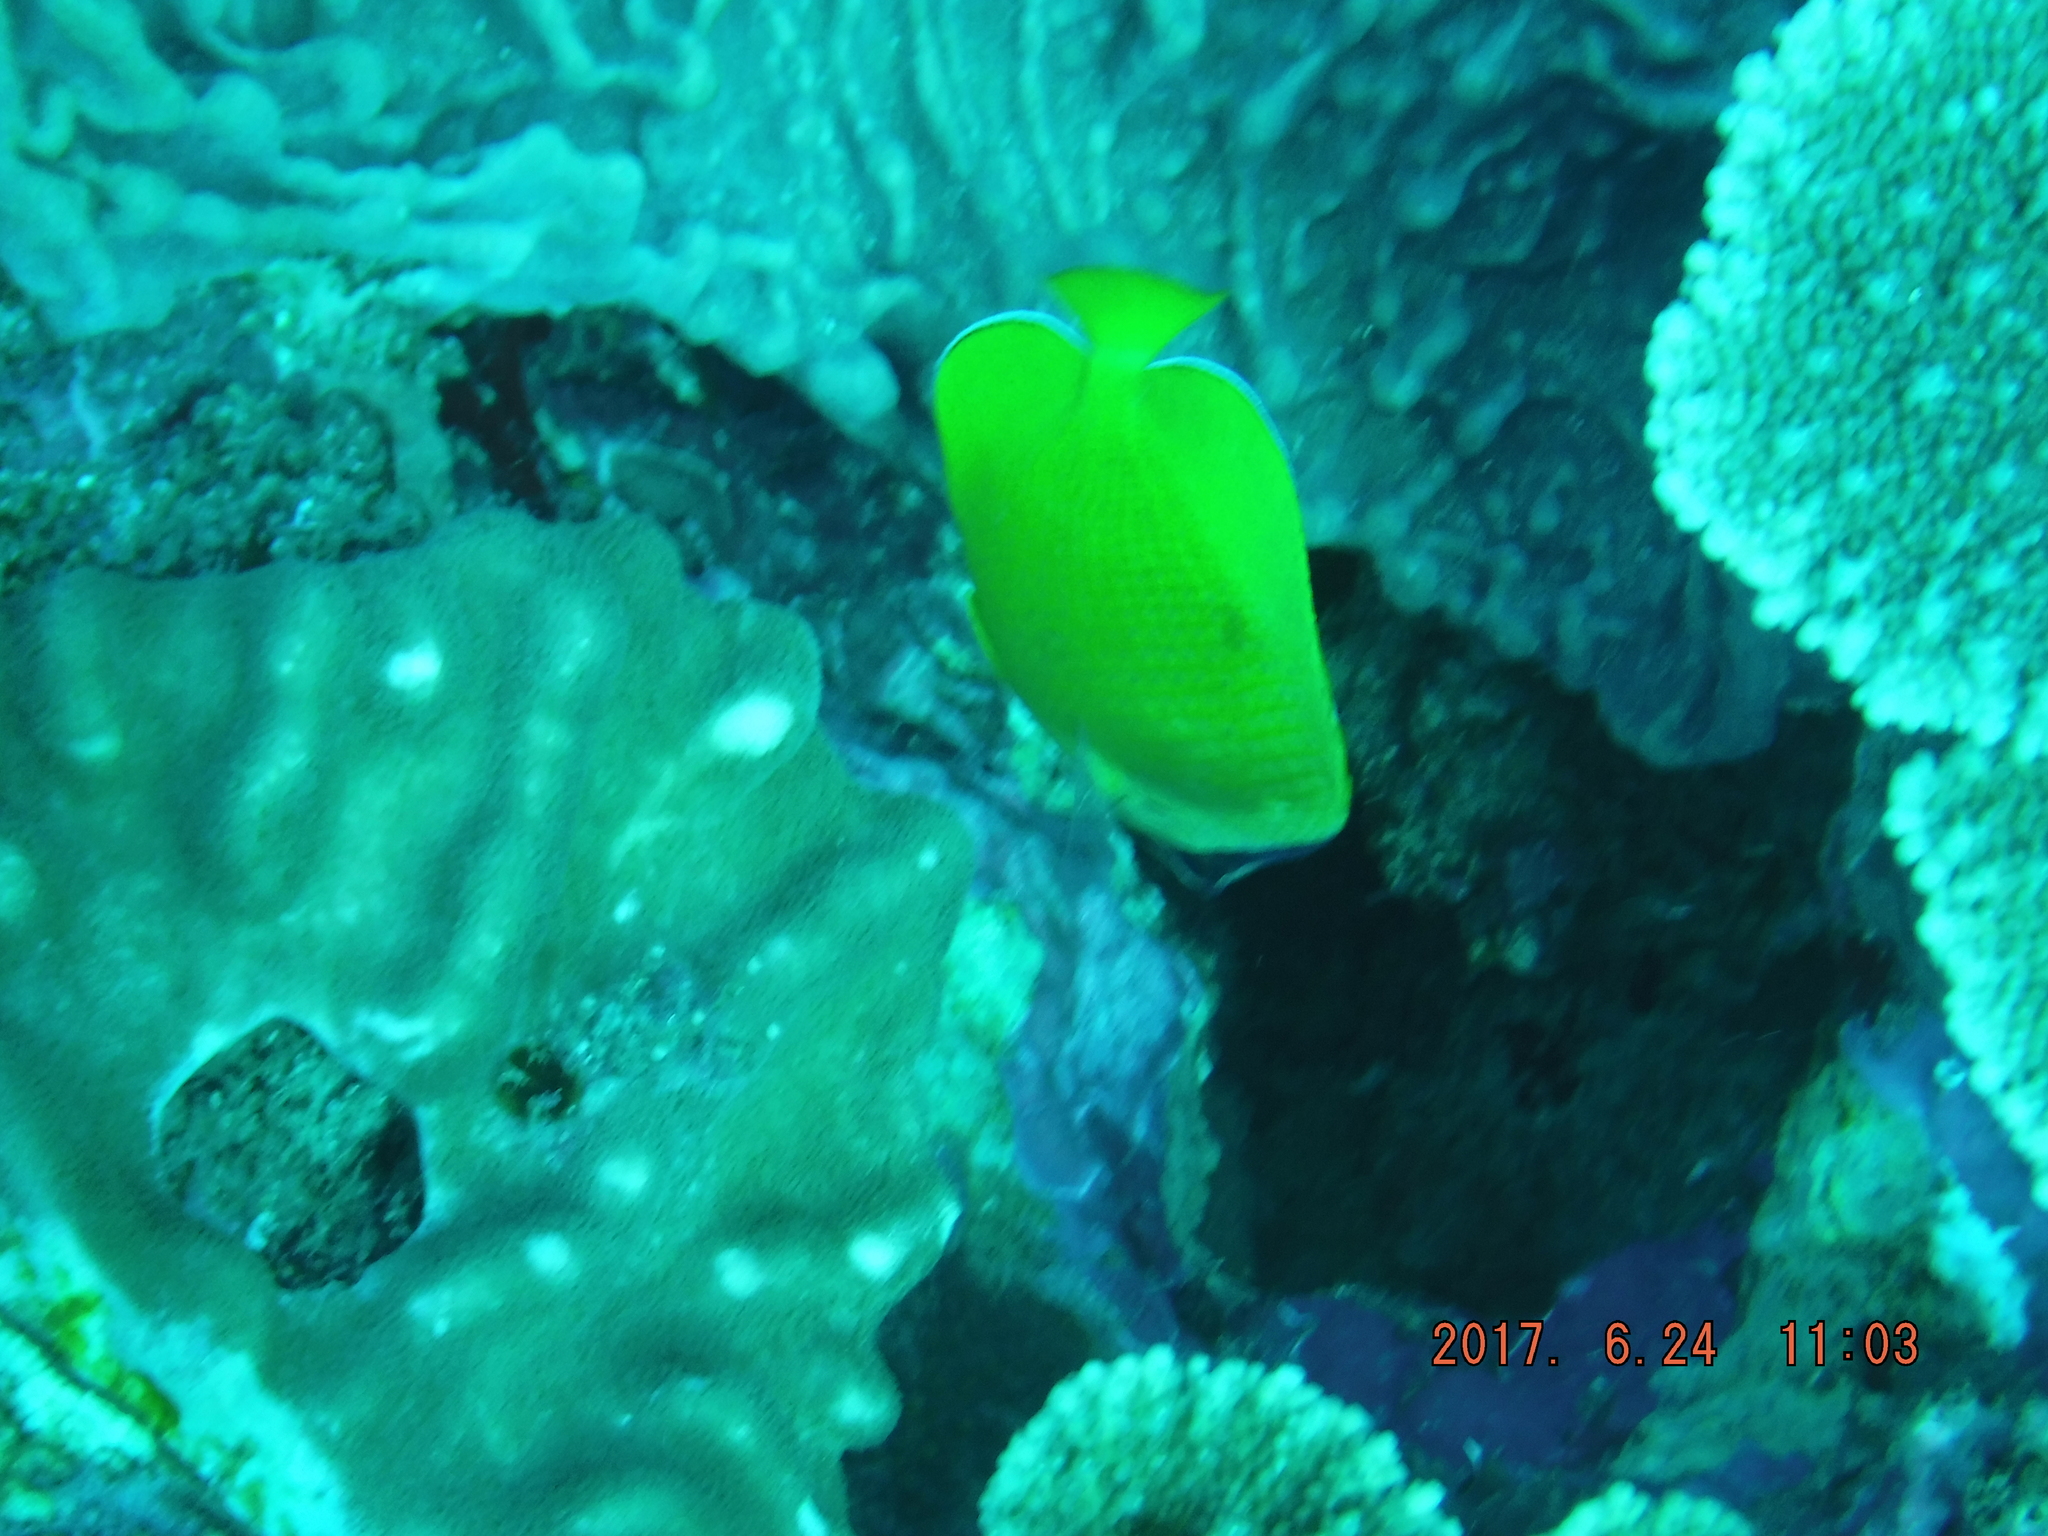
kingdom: Animalia
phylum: Chordata
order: Perciformes
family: Chaetodontidae
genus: Chaetodon
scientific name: Chaetodon kleinii
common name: Klein's butterflyfish
